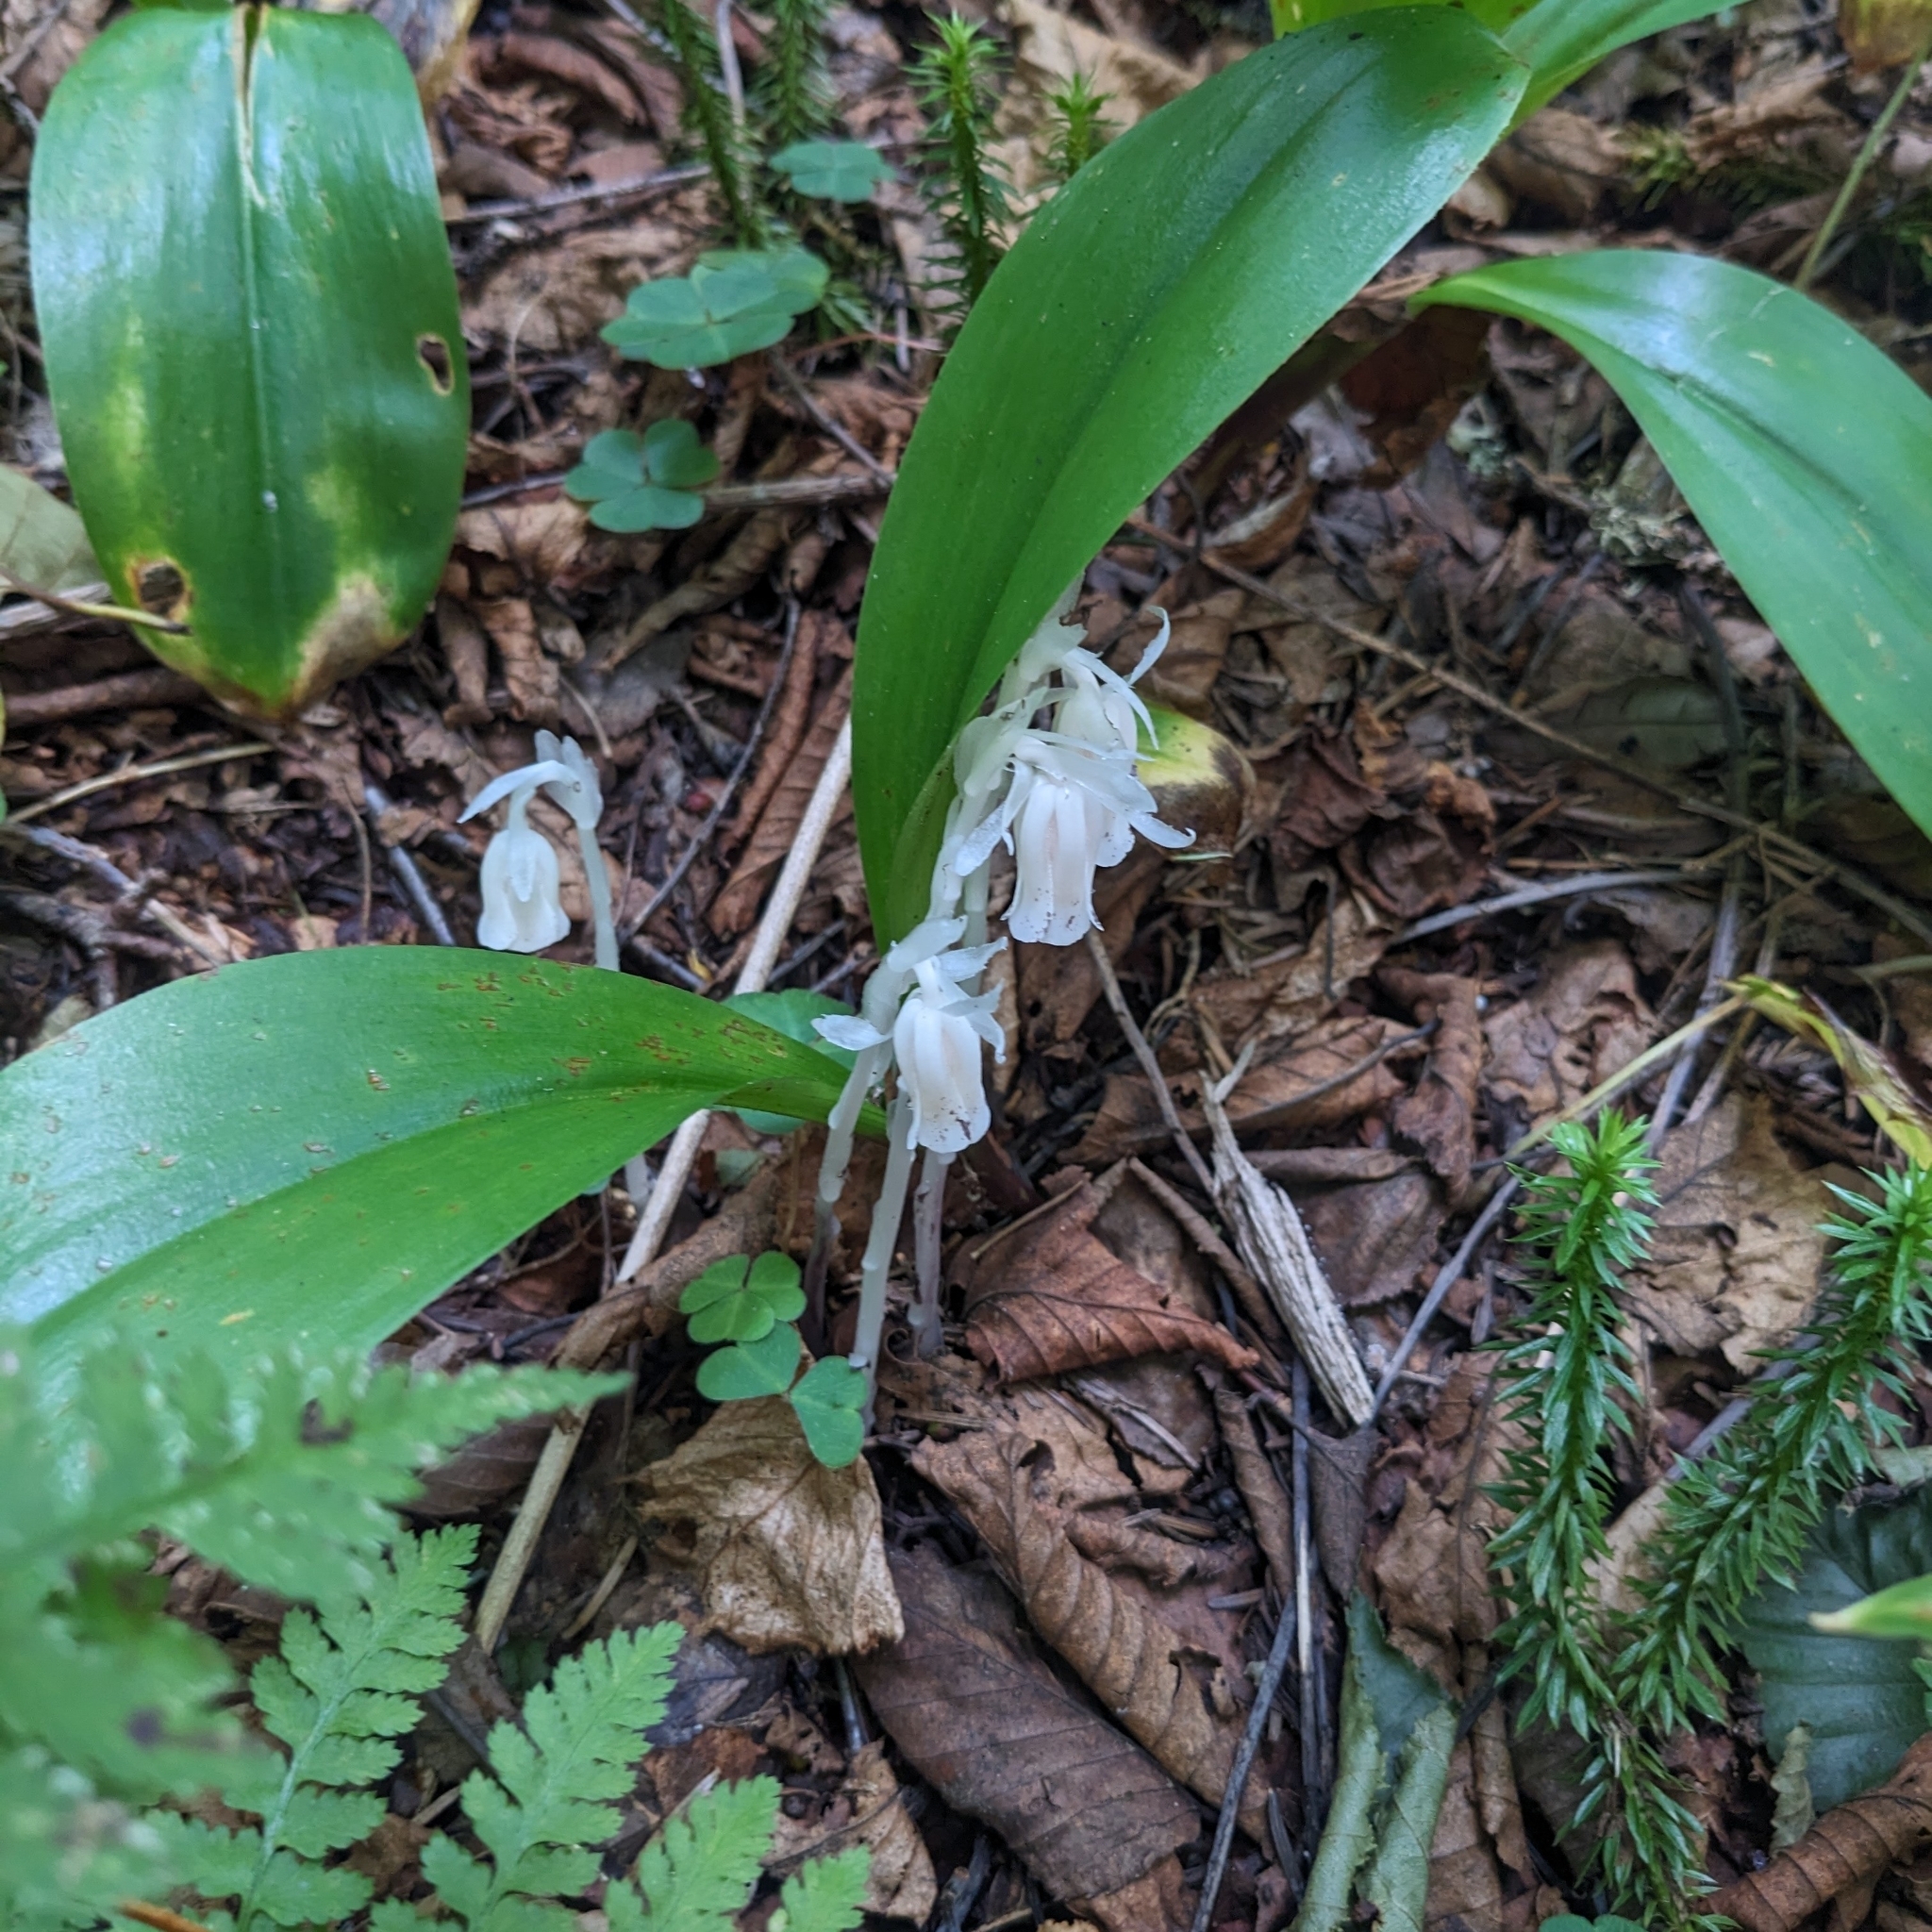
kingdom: Plantae
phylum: Tracheophyta
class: Magnoliopsida
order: Ericales
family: Ericaceae
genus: Monotropa
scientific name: Monotropa uniflora
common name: Convulsion root
